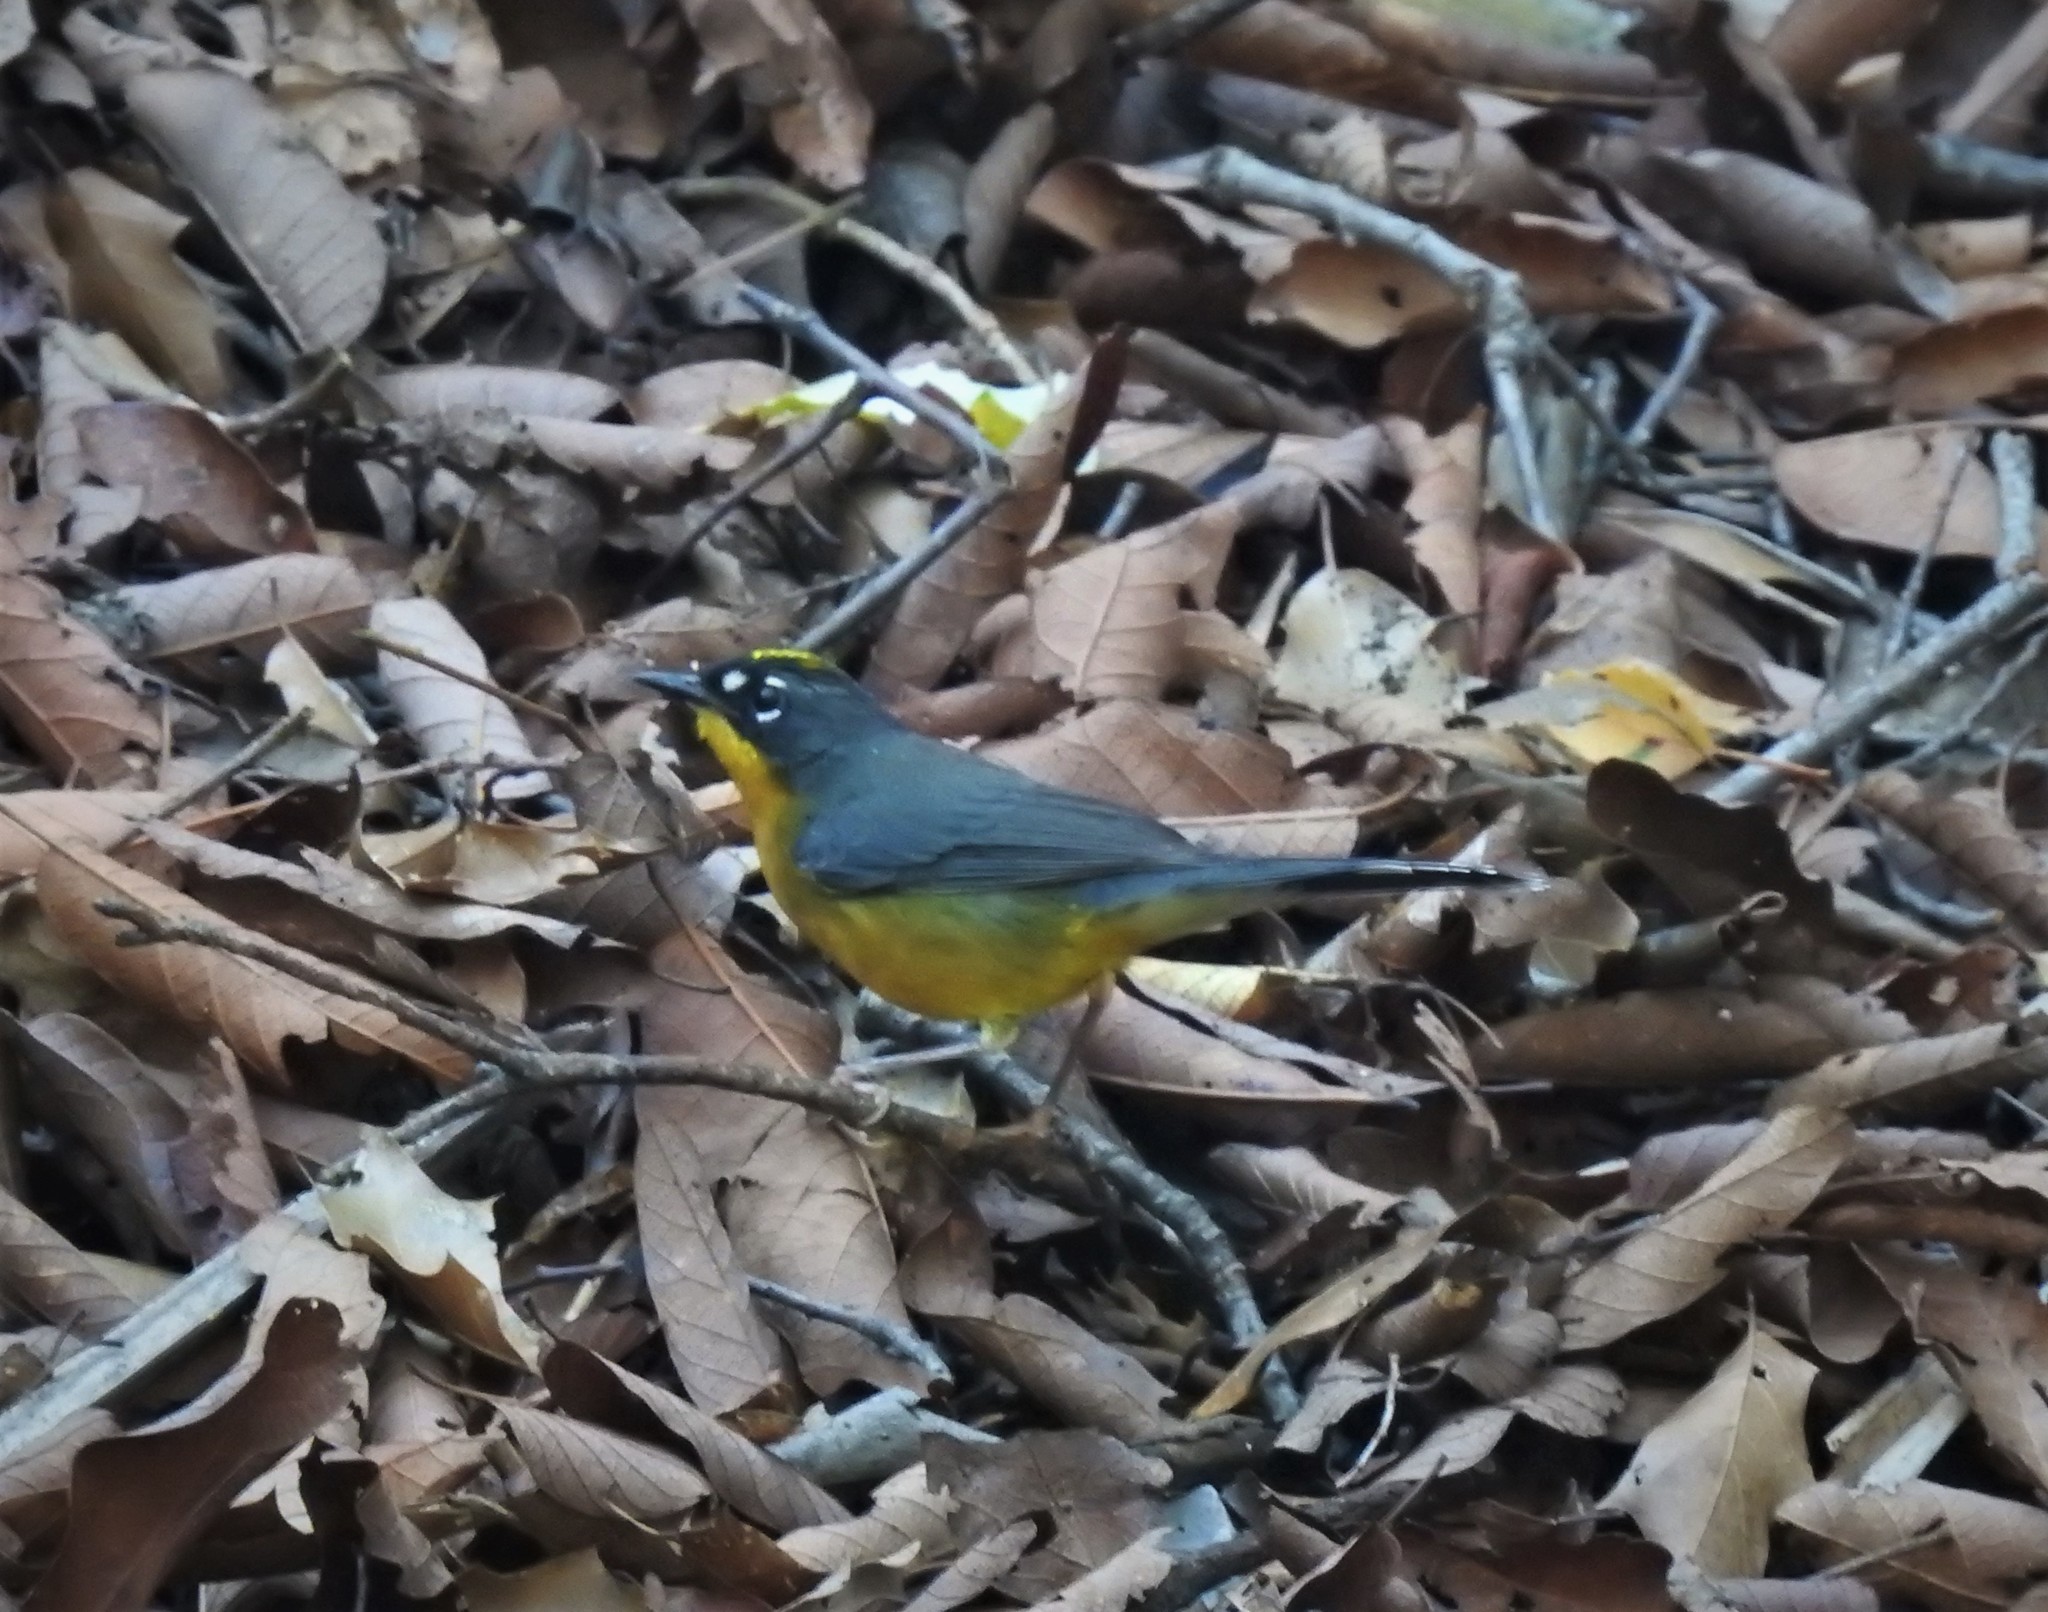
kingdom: Animalia
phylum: Chordata
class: Aves
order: Passeriformes
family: Parulidae
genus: Basileuterus
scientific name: Basileuterus lachrymosus
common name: Fan-tailed warbler
